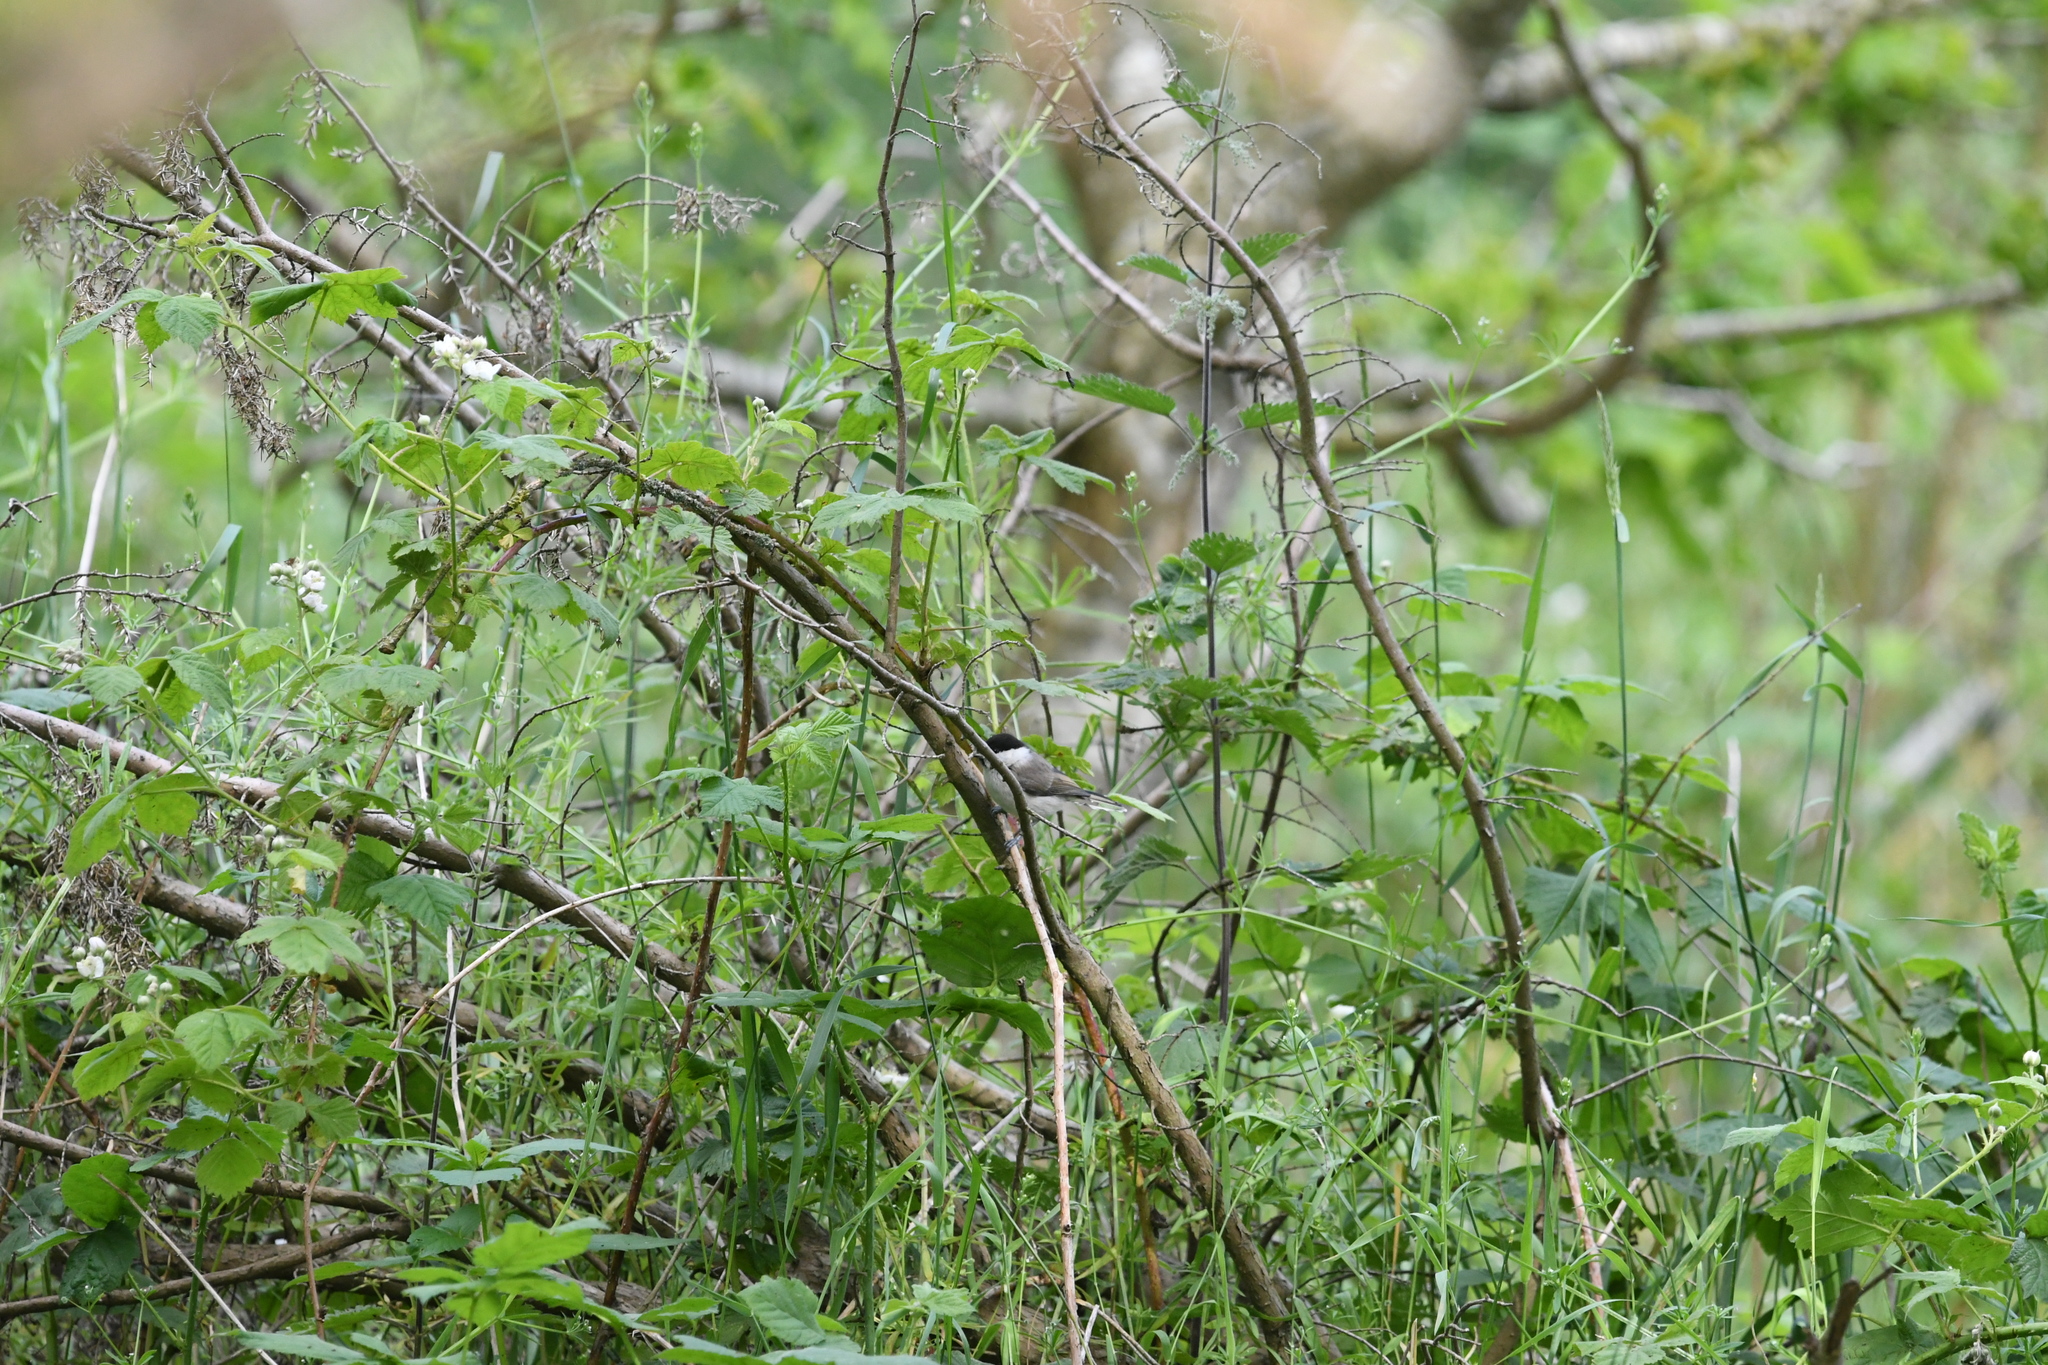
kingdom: Animalia
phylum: Chordata
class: Aves
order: Passeriformes
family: Paridae
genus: Poecile
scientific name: Poecile palustris
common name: Marsh tit
